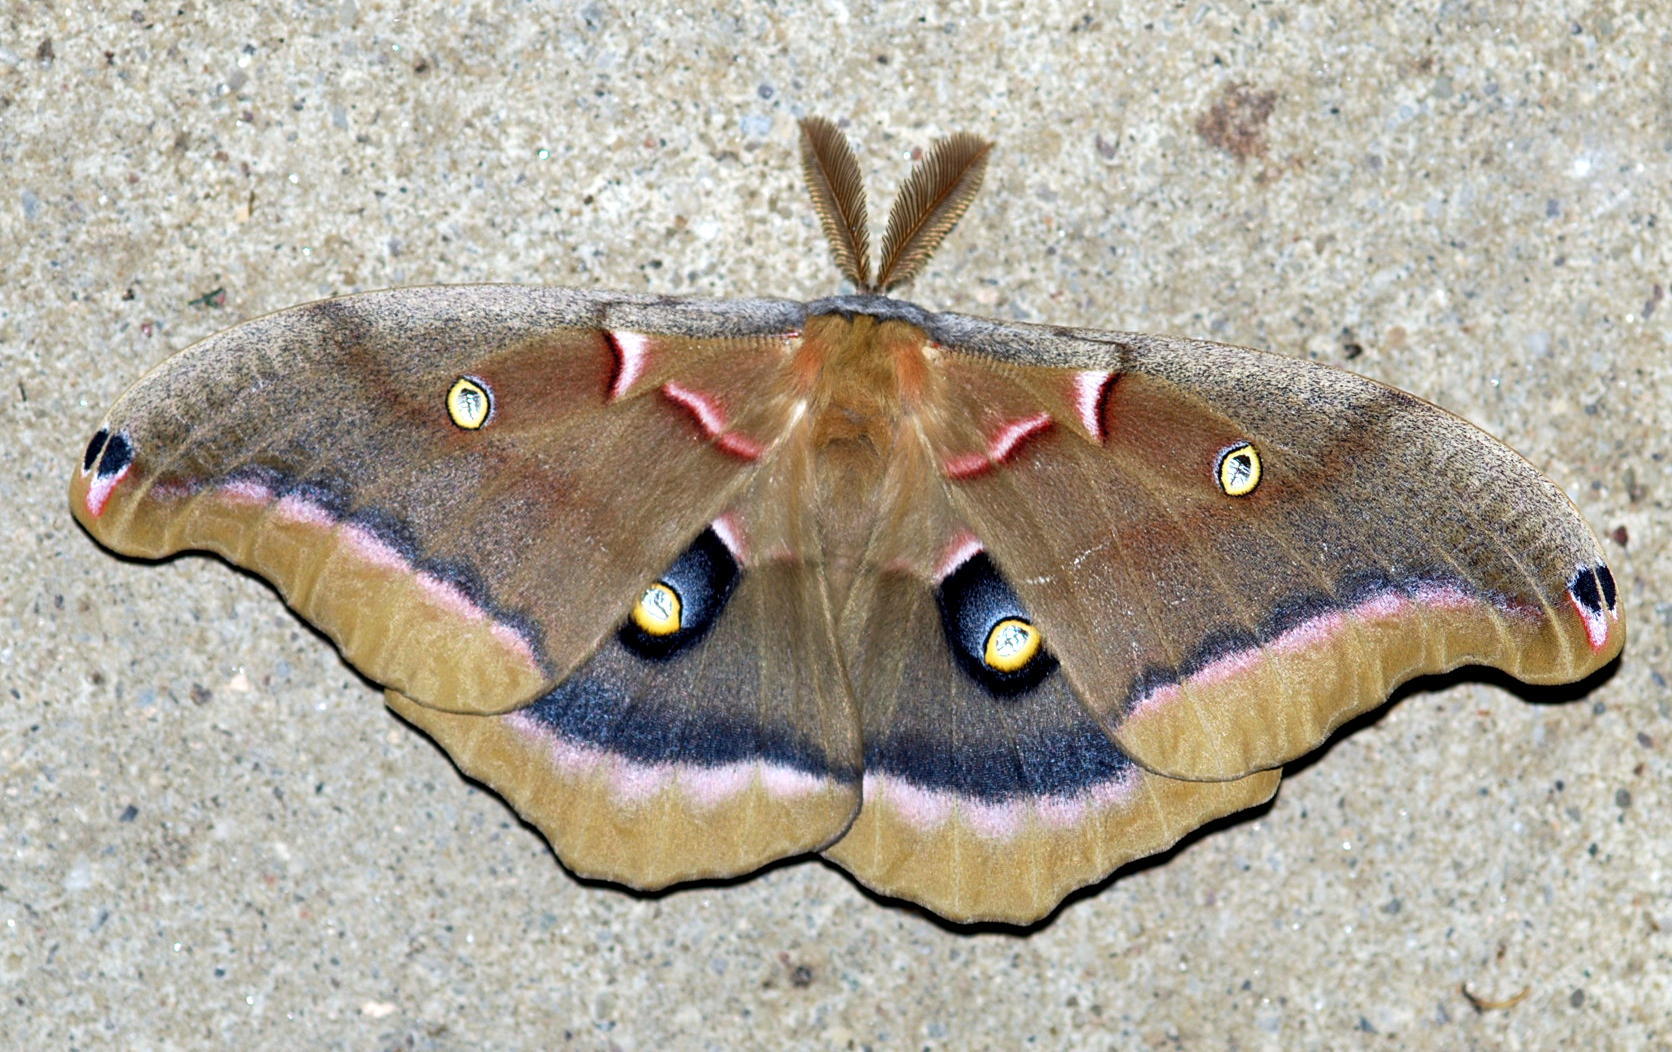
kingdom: Animalia
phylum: Arthropoda
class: Insecta
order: Lepidoptera
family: Saturniidae
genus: Antheraea
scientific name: Antheraea polyphemus
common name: Polyphemus moth
